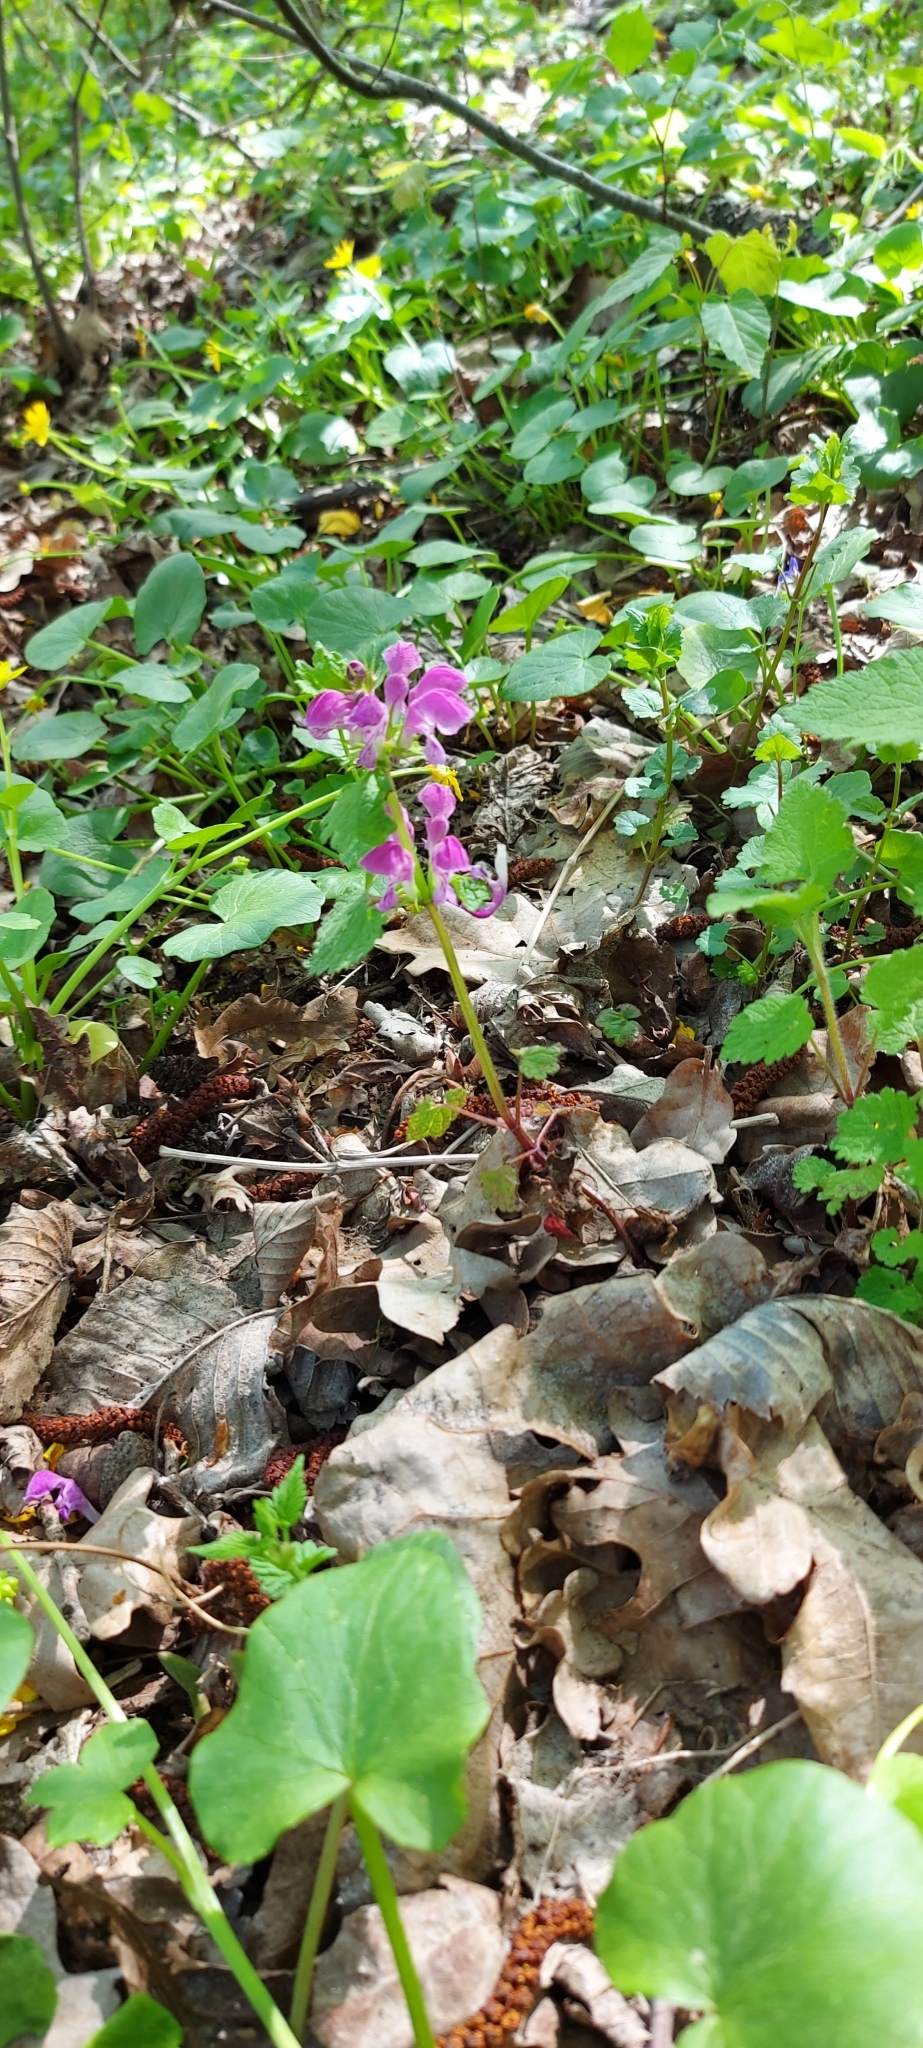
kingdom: Plantae
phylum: Tracheophyta
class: Magnoliopsida
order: Lamiales
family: Lamiaceae
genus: Lamium
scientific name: Lamium maculatum
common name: Spotted dead-nettle
